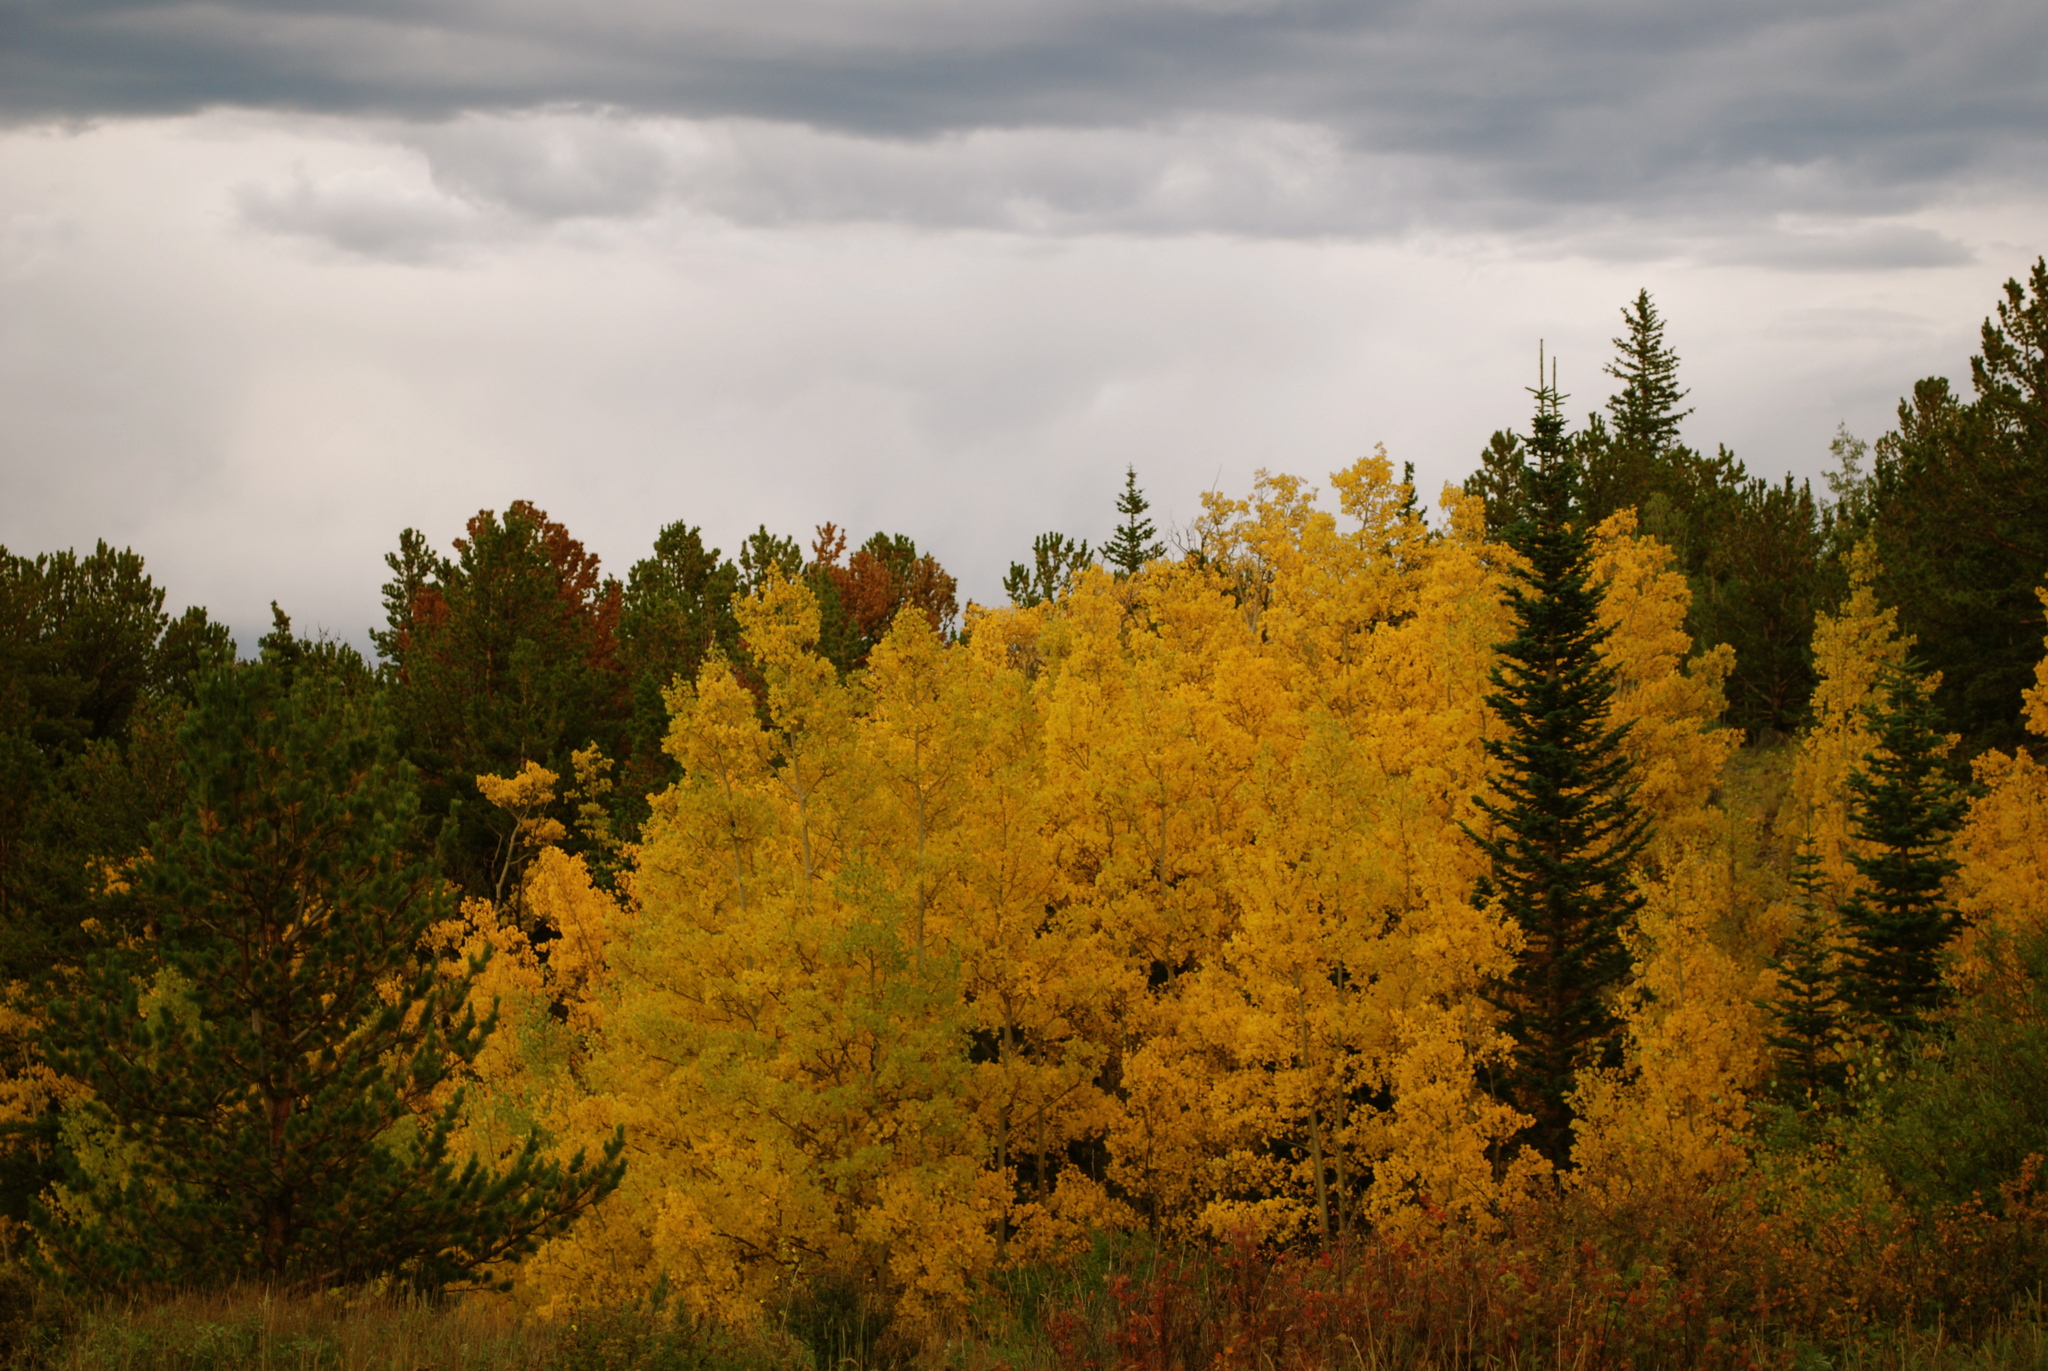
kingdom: Plantae
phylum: Tracheophyta
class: Magnoliopsida
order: Malpighiales
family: Salicaceae
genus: Populus
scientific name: Populus tremuloides
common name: Quaking aspen
